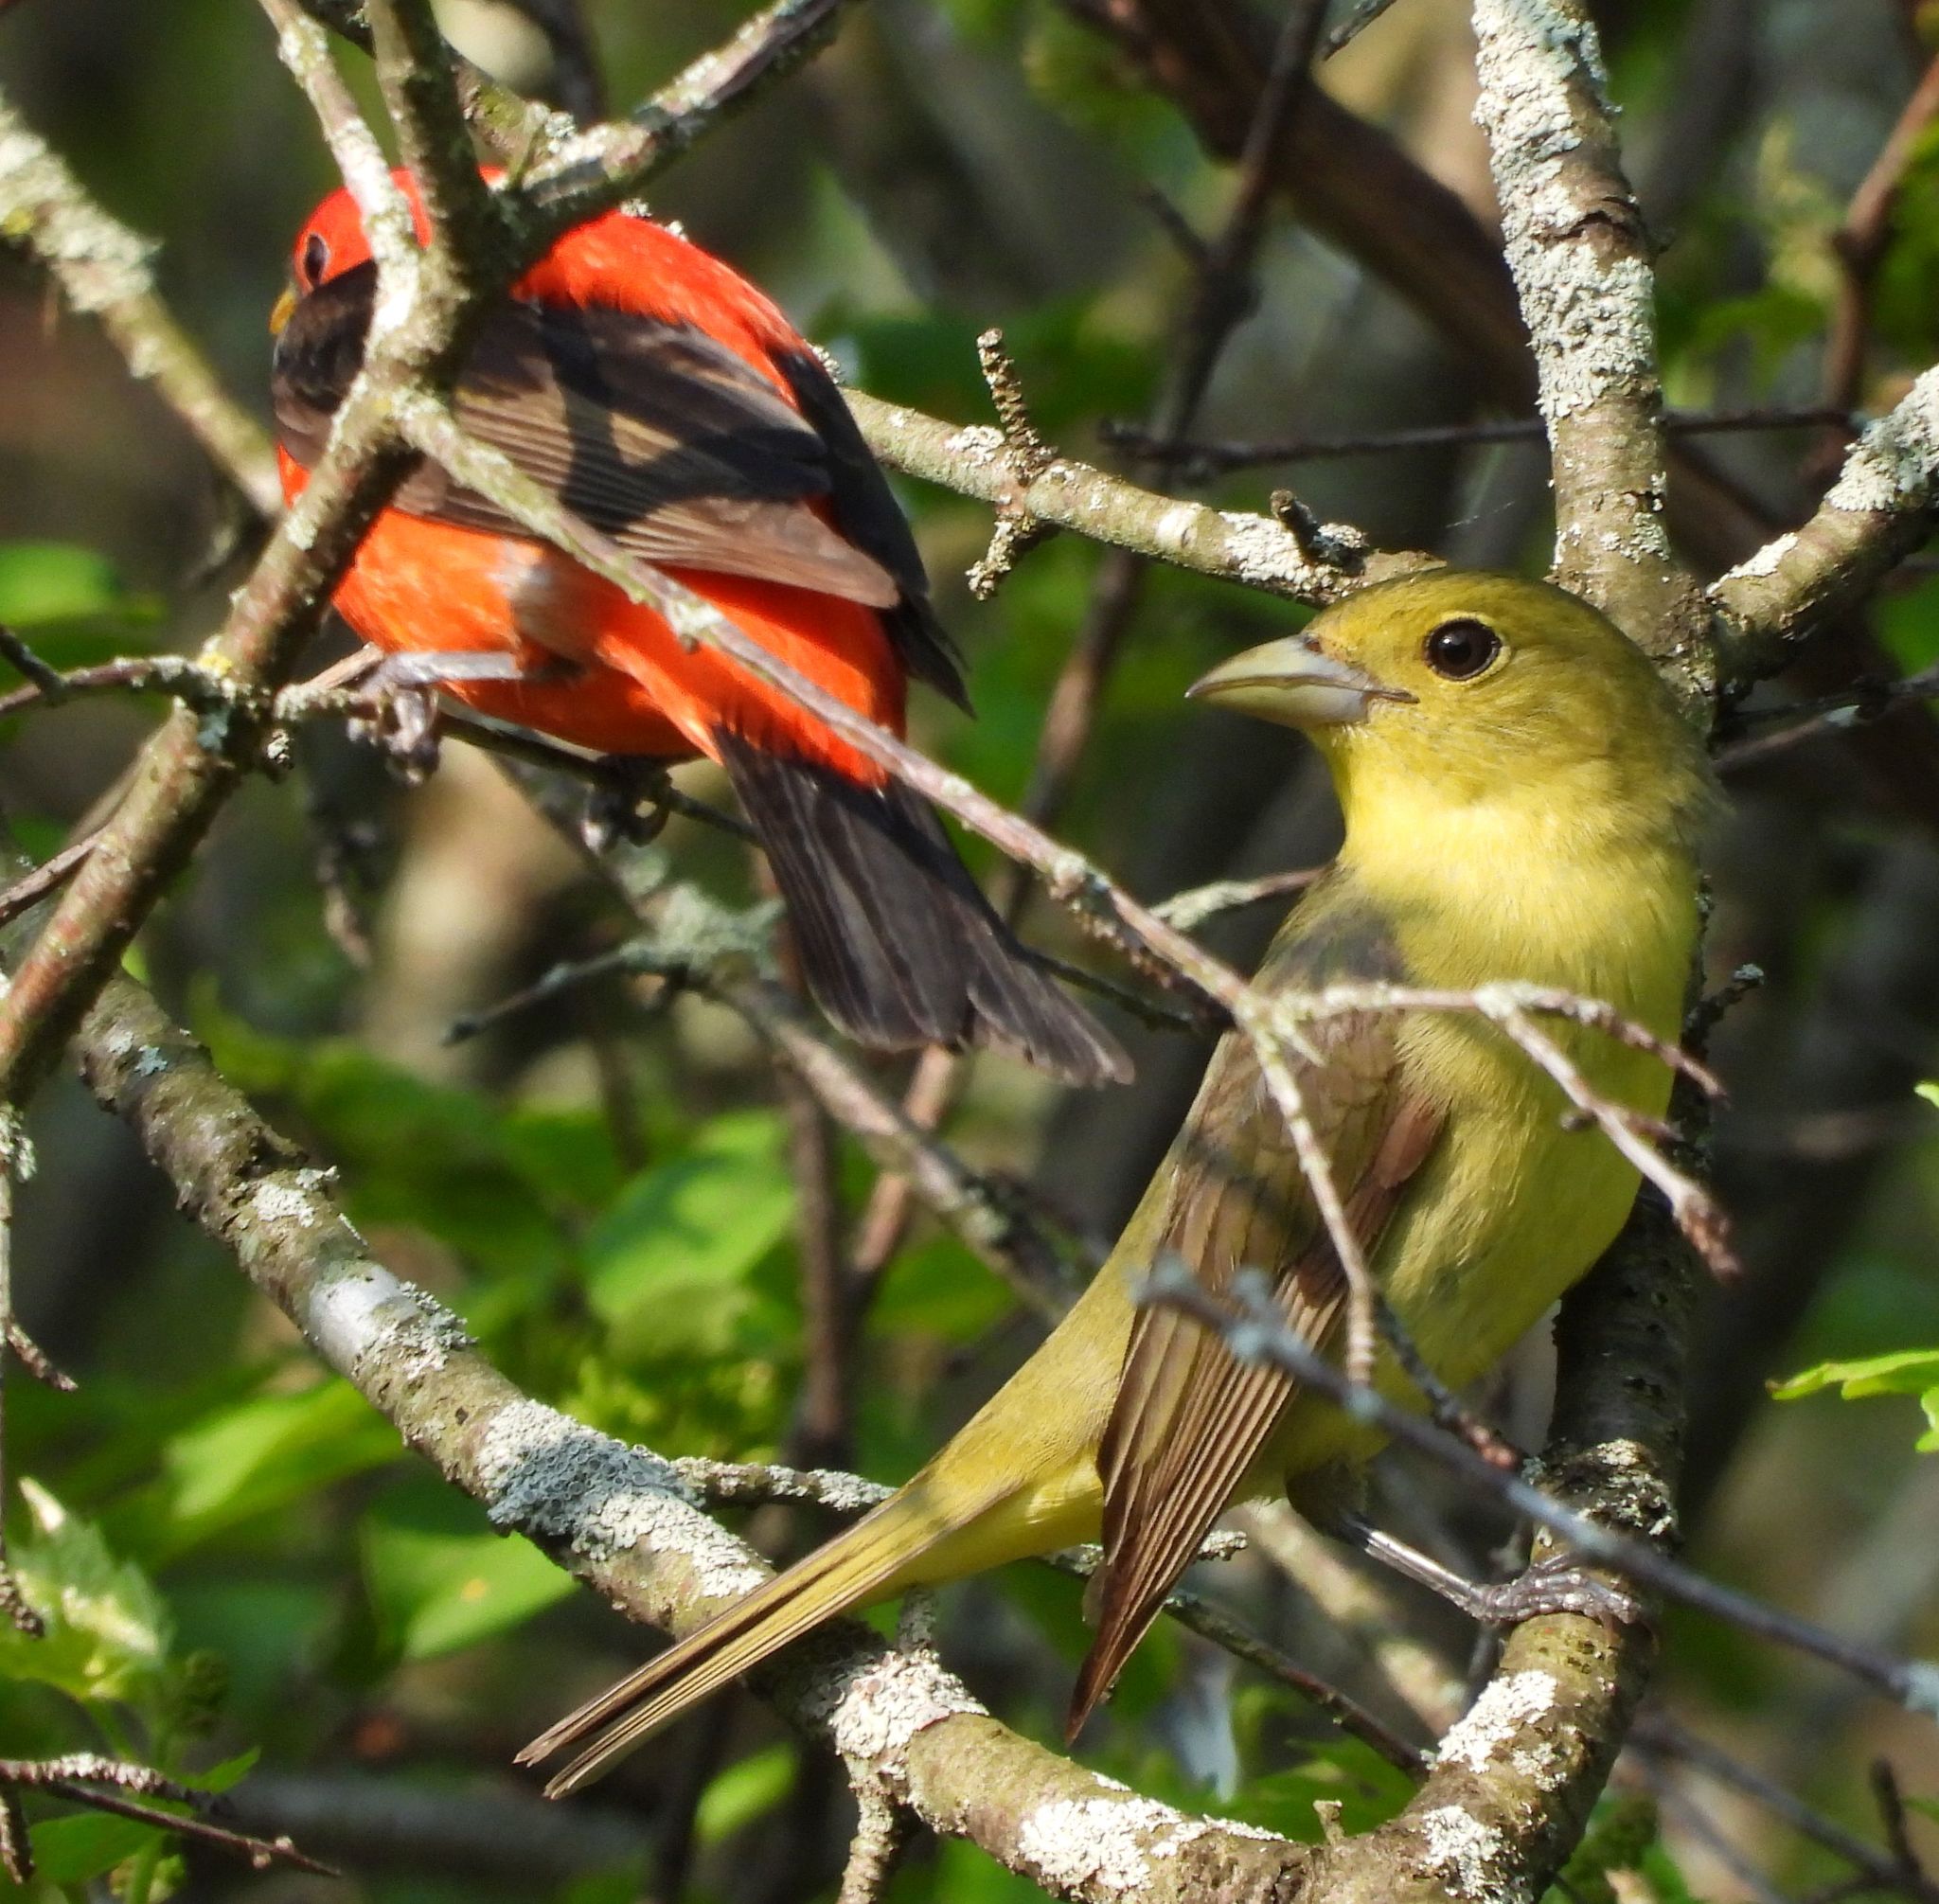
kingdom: Animalia
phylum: Chordata
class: Aves
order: Passeriformes
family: Cardinalidae
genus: Piranga
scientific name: Piranga olivacea
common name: Scarlet tanager
